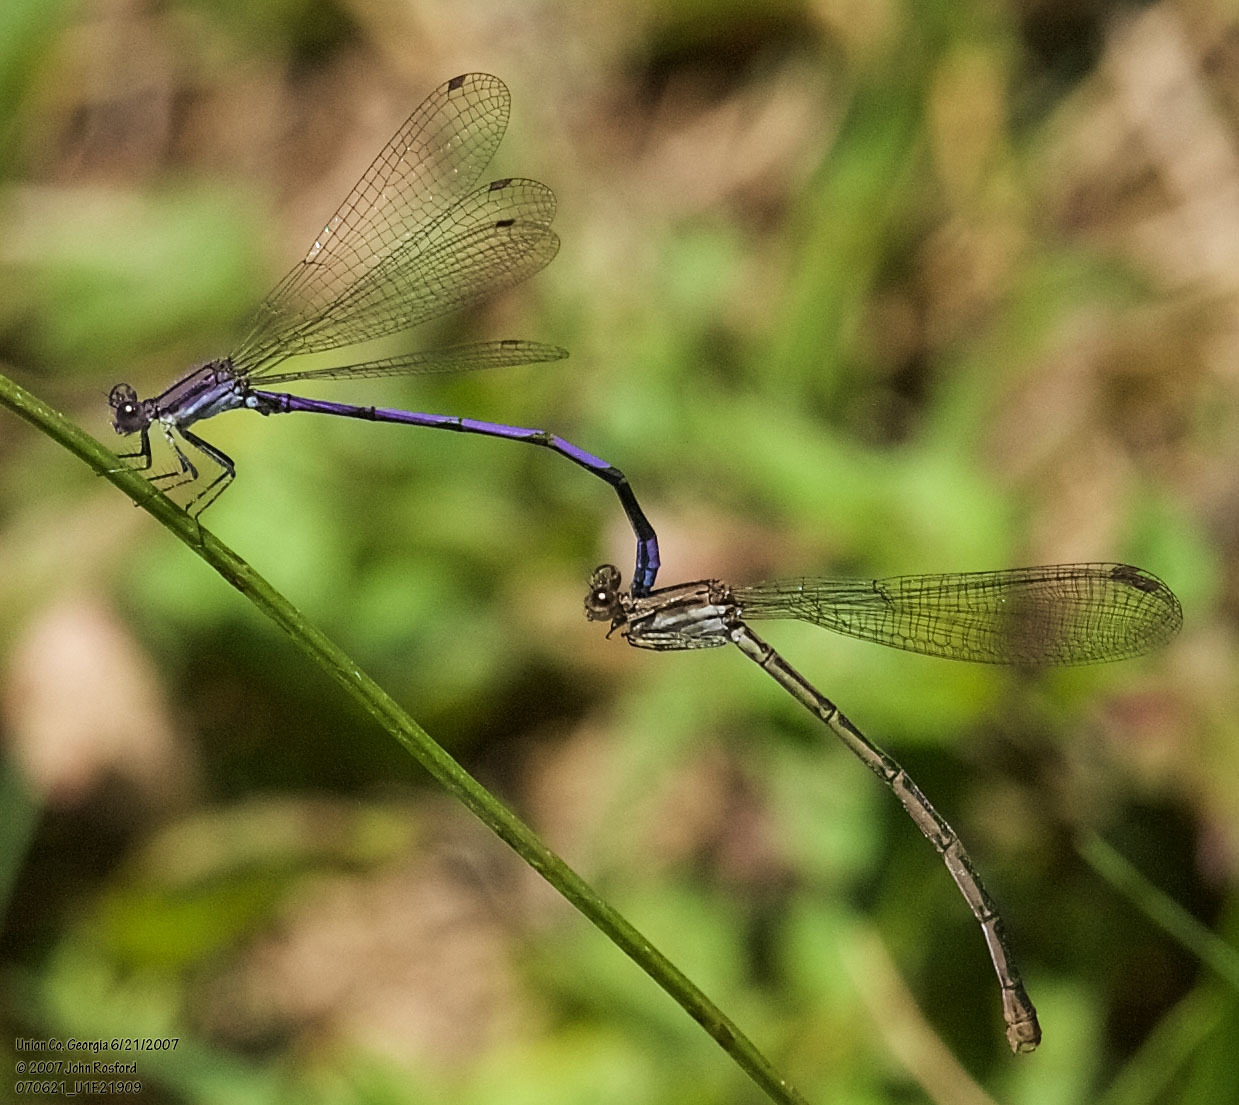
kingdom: Animalia
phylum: Arthropoda
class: Insecta
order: Odonata
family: Coenagrionidae
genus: Argia
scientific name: Argia fumipennis
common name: Variable dancer
